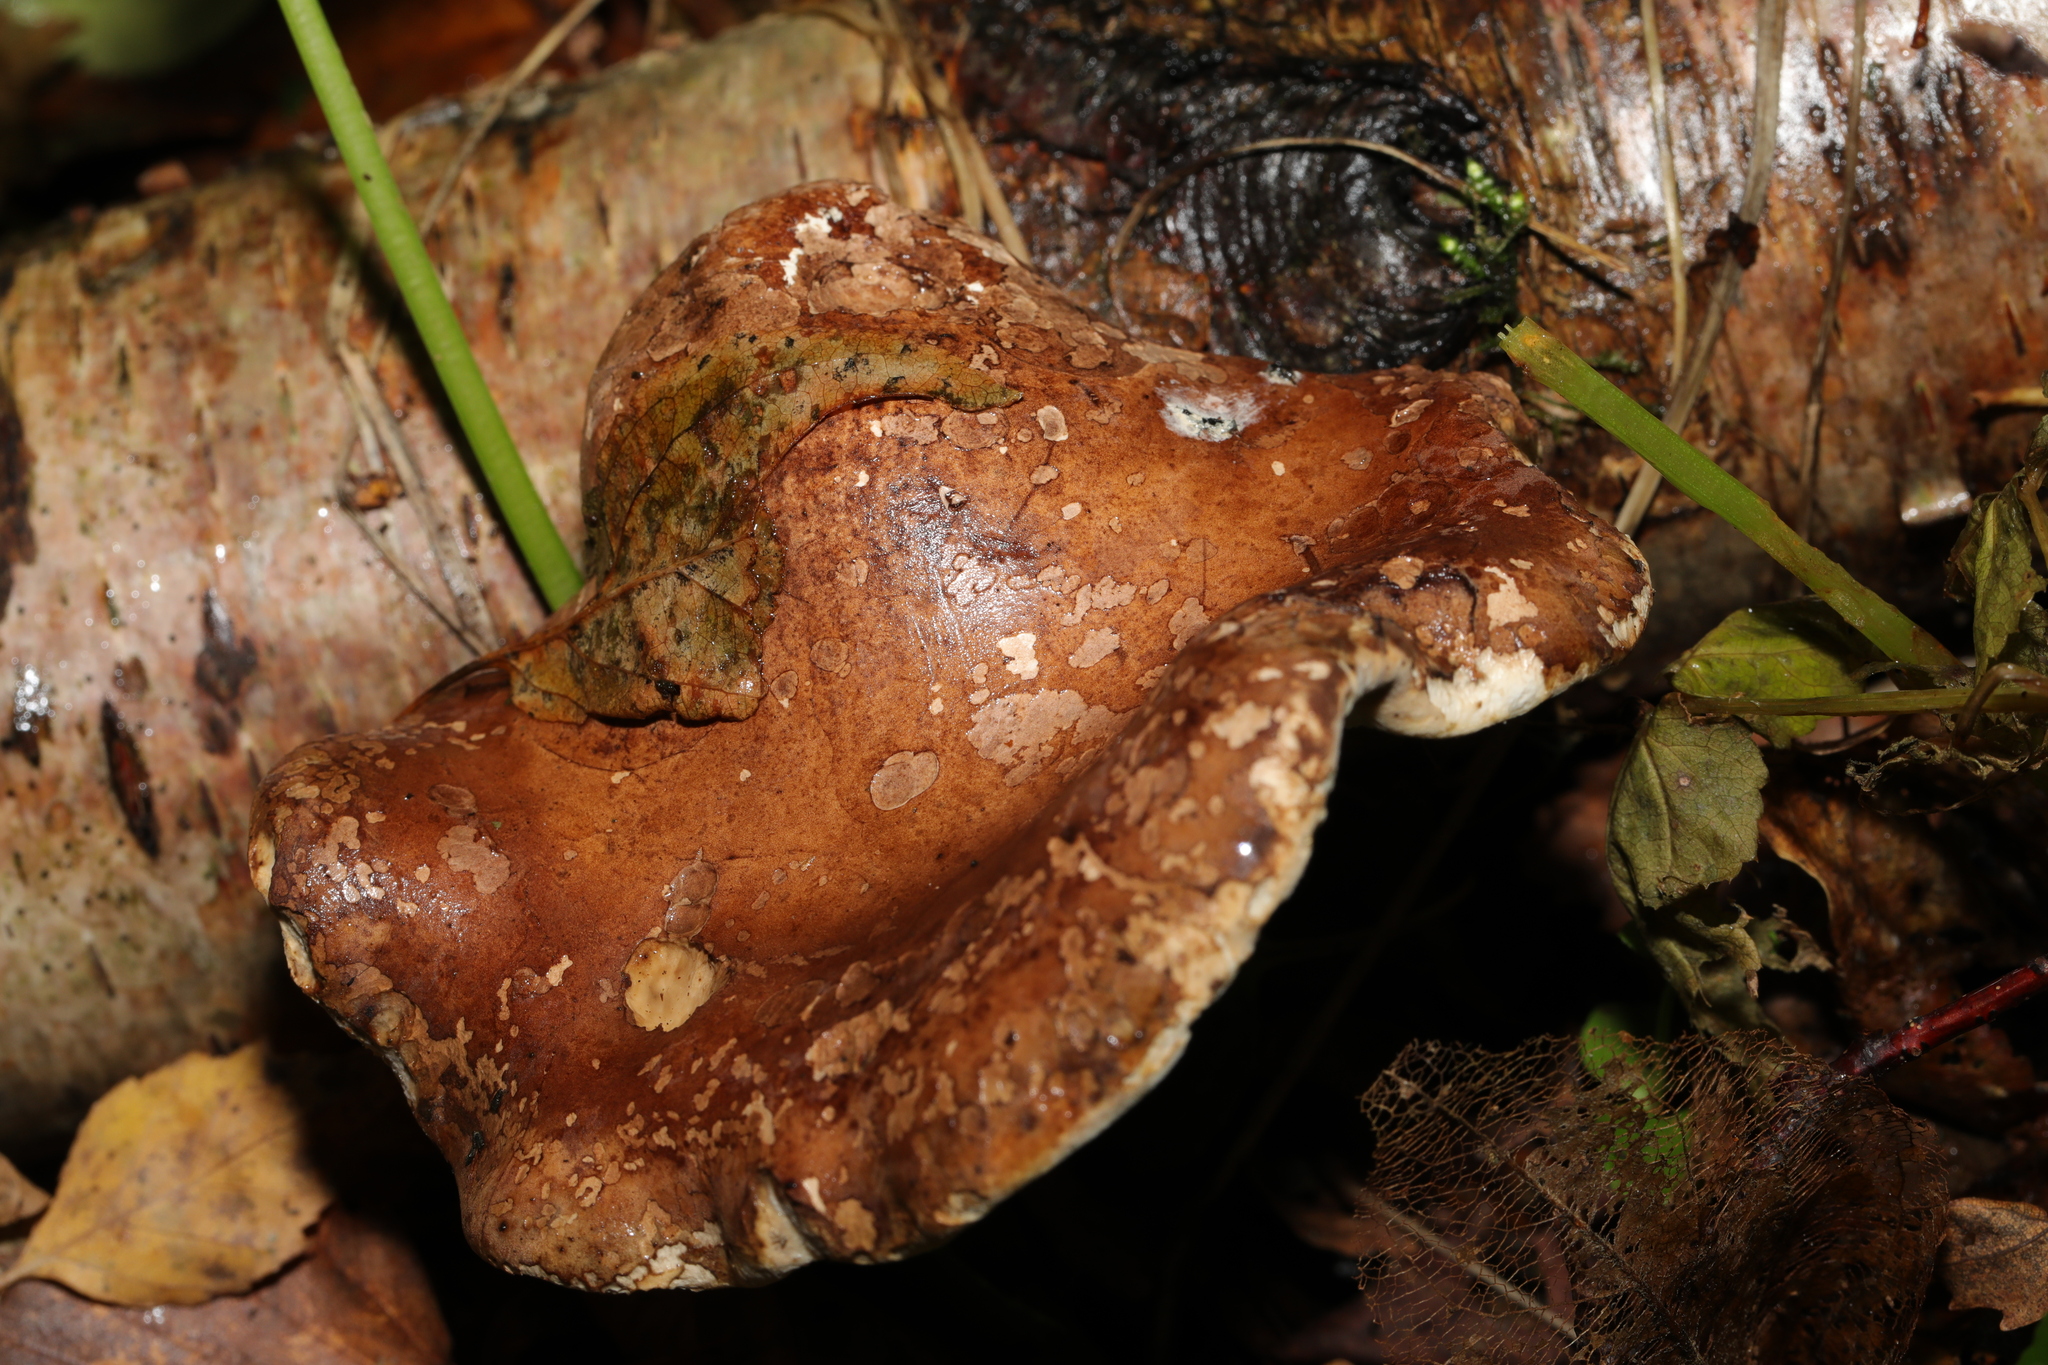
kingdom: Fungi
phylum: Basidiomycota
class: Agaricomycetes
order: Polyporales
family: Fomitopsidaceae
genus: Fomitopsis
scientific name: Fomitopsis betulina
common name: Birch polypore
